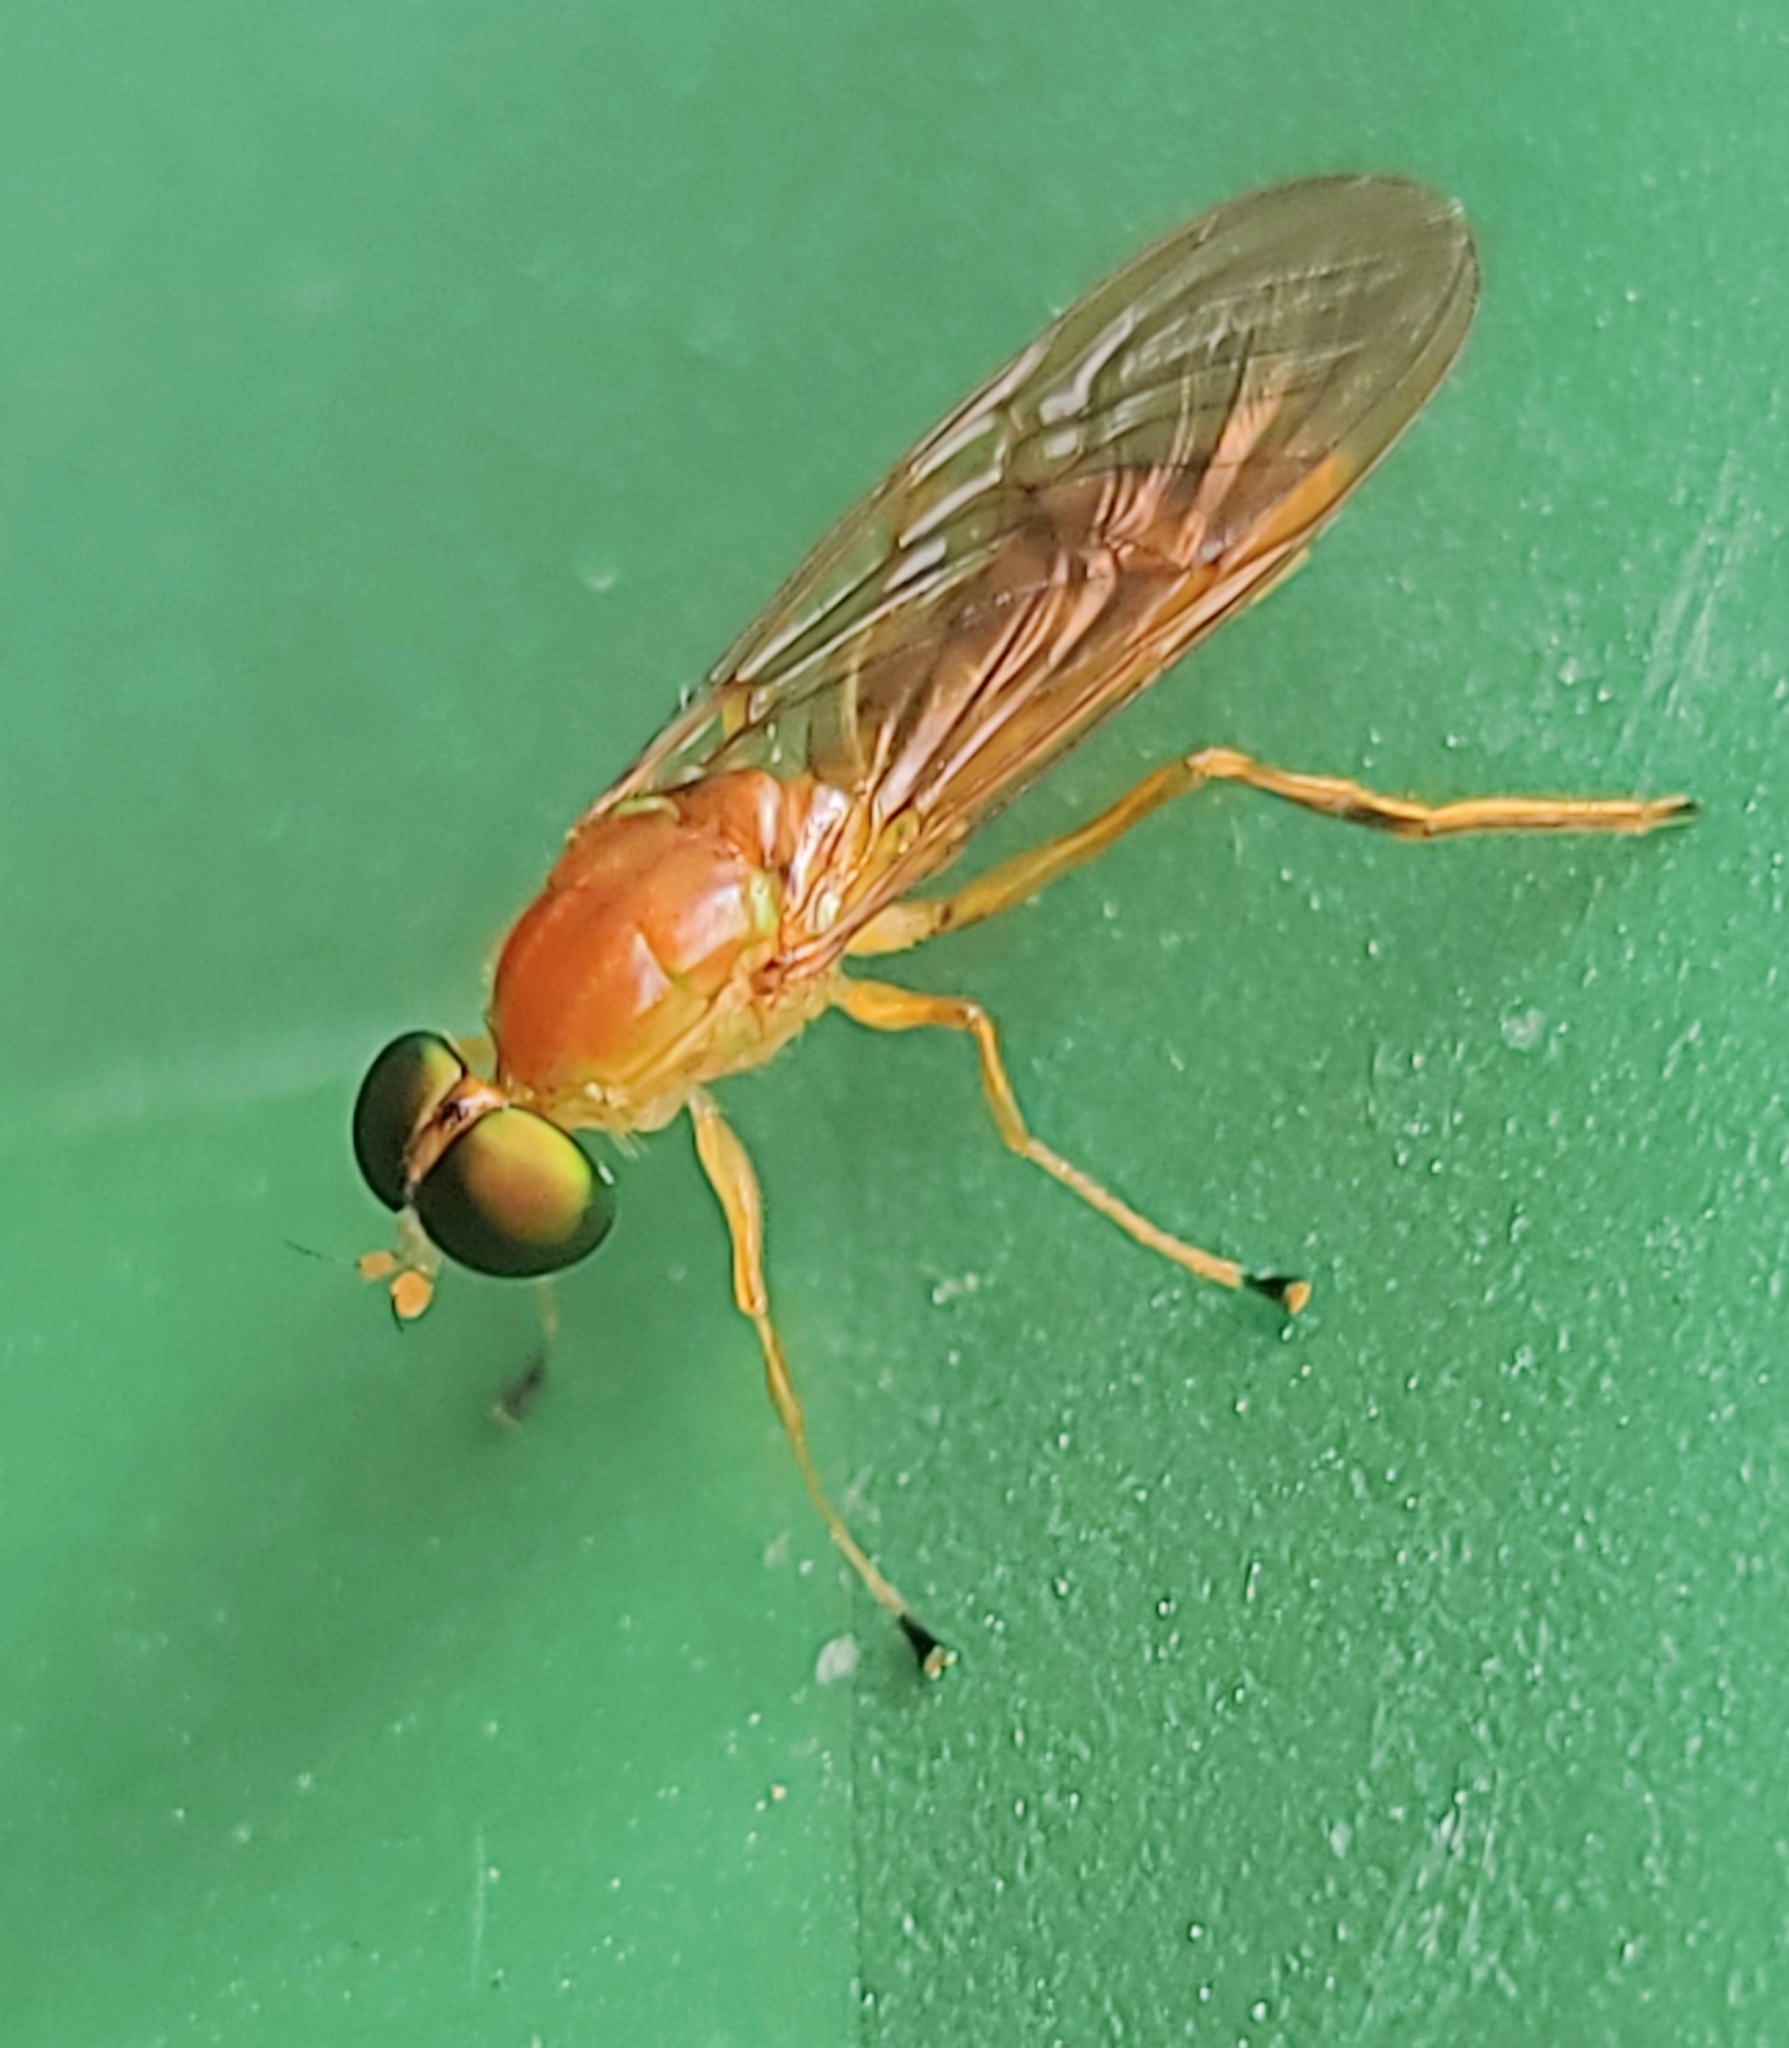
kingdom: Animalia
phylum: Arthropoda
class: Insecta
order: Diptera
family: Stratiomyidae
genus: Ptecticus
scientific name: Ptecticus trivittatus
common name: Compost fly
